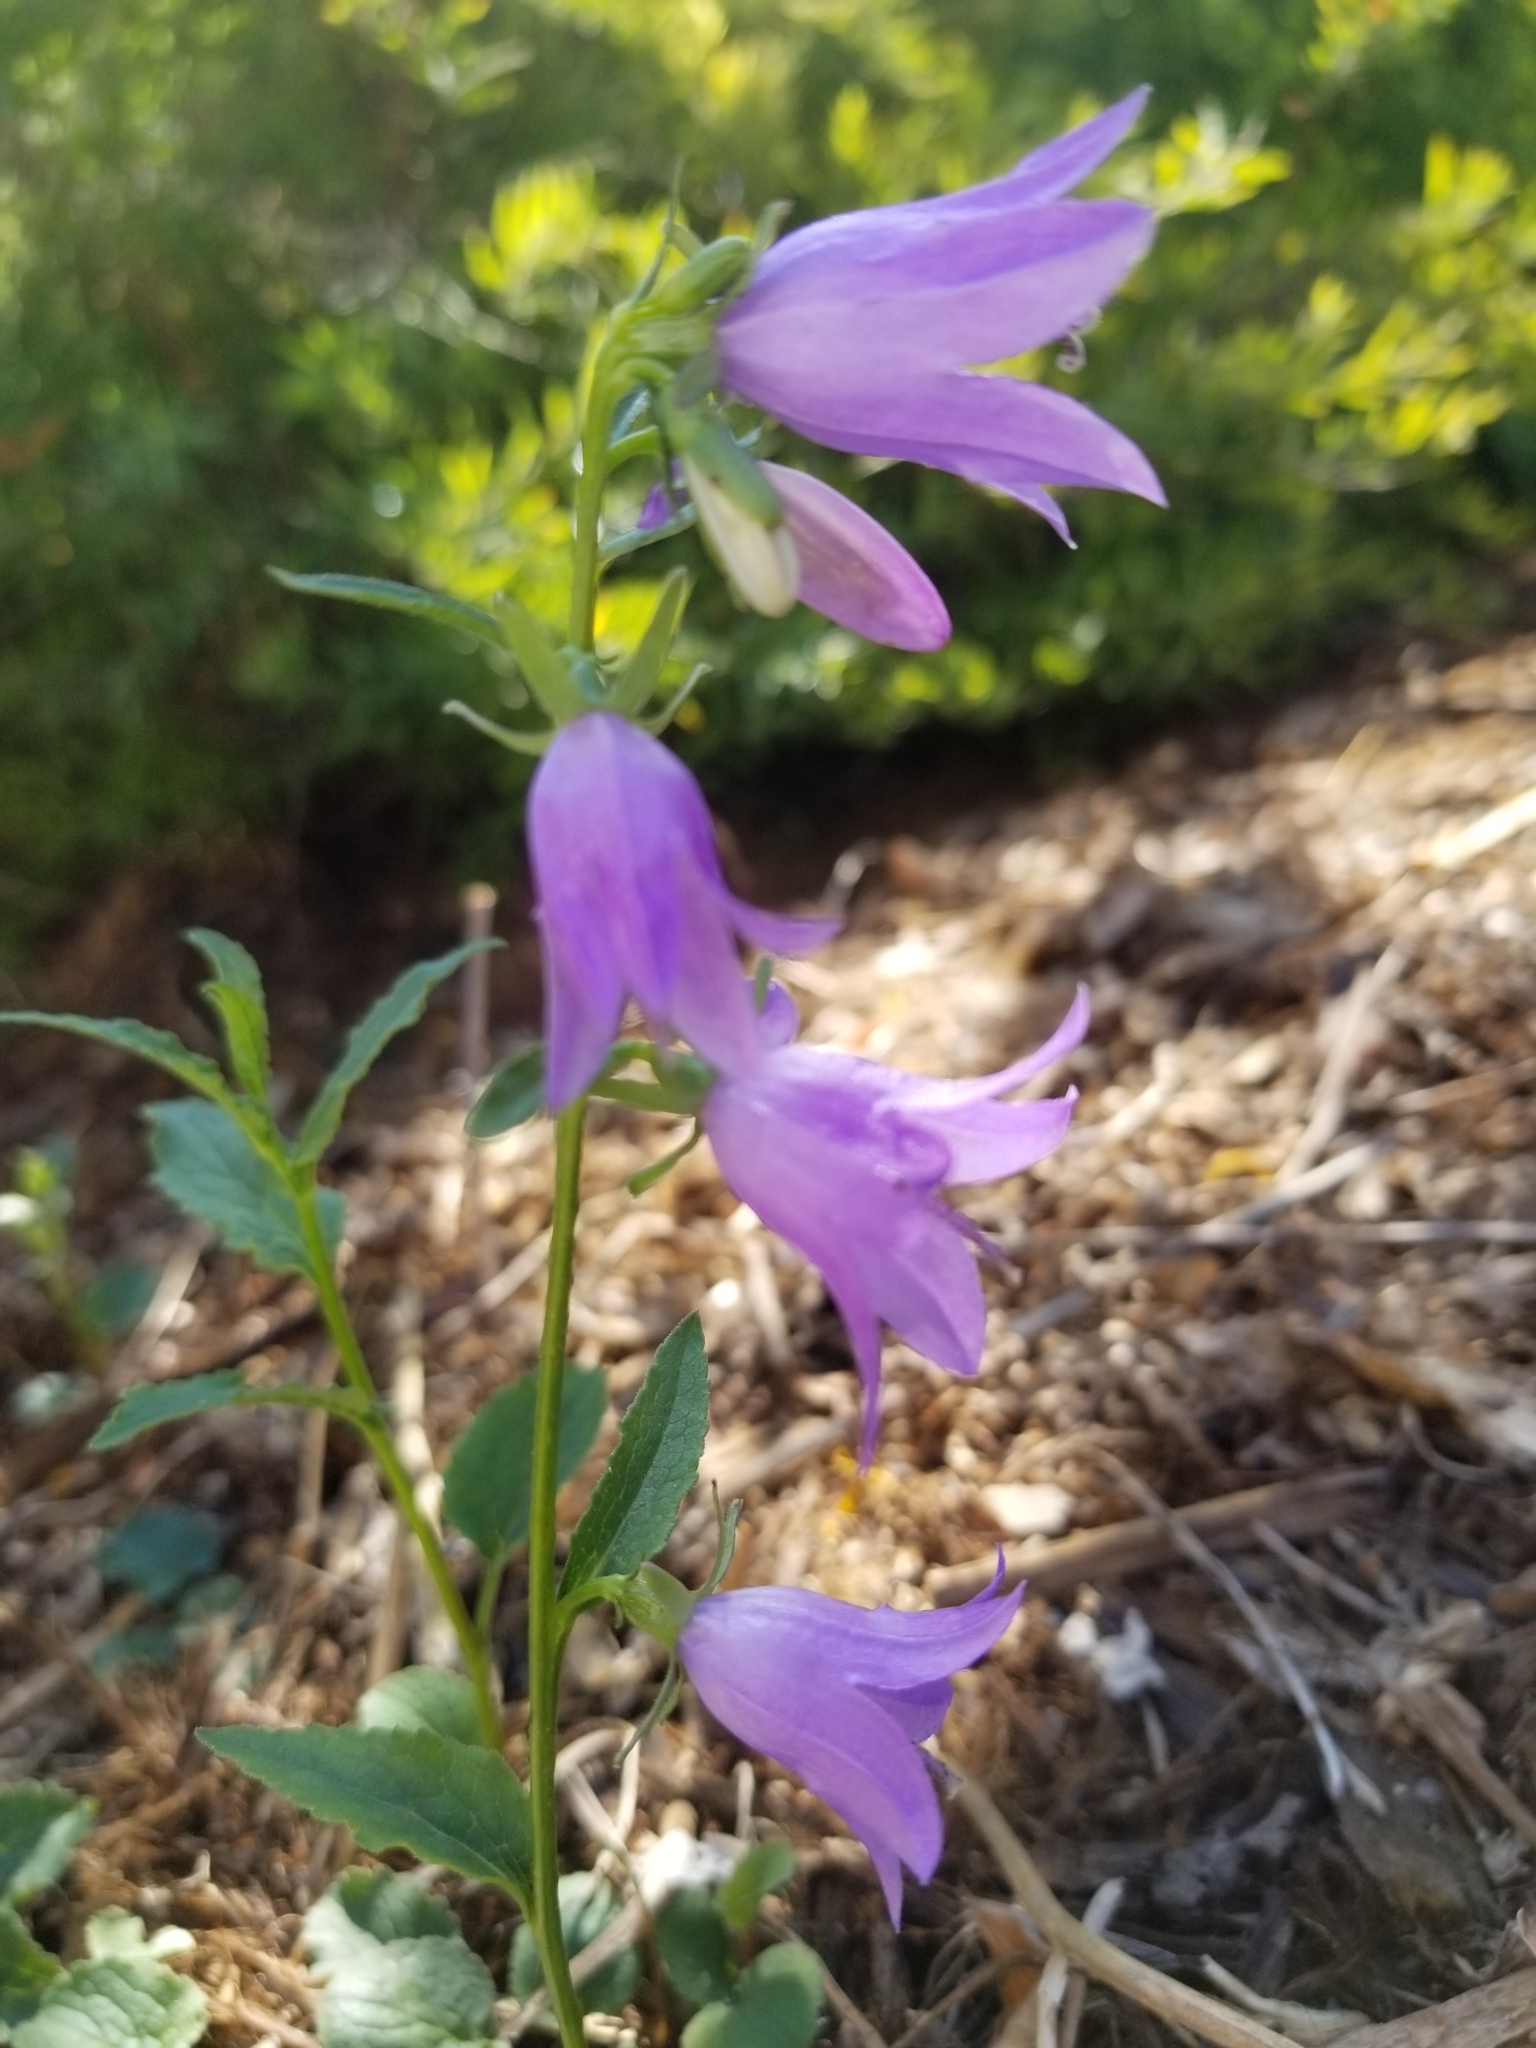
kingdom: Plantae
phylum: Tracheophyta
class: Magnoliopsida
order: Asterales
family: Campanulaceae
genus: Campanula
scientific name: Campanula petiolata
